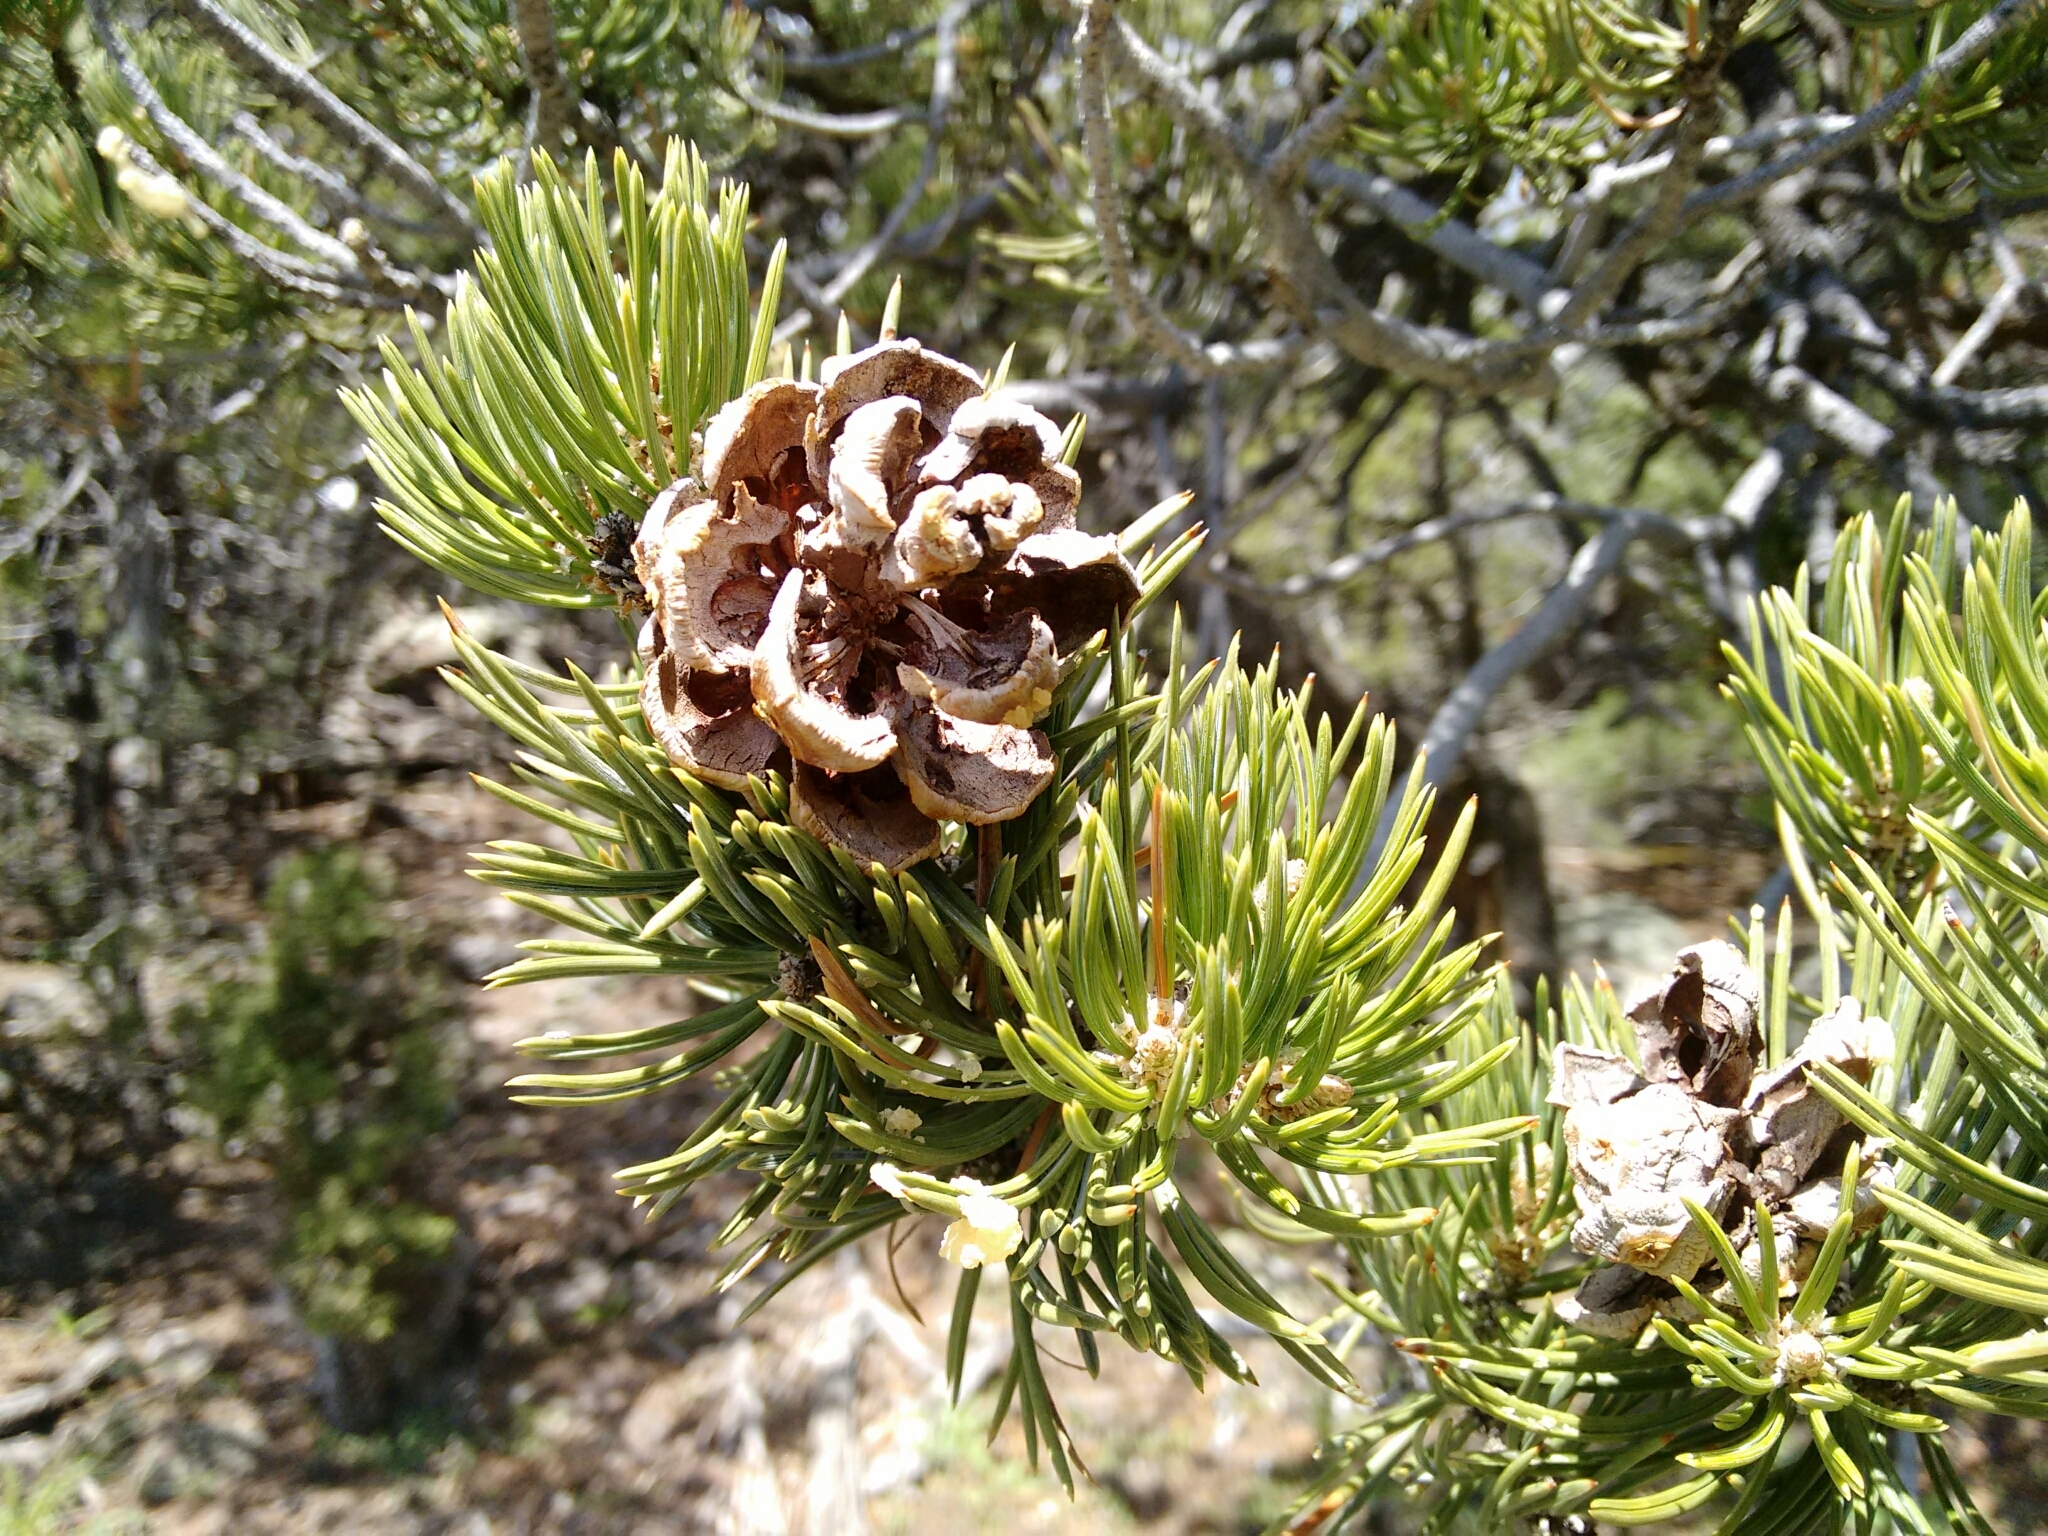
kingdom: Plantae
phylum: Tracheophyta
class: Pinopsida
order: Pinales
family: Pinaceae
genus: Pinus
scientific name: Pinus edulis
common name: Colorado pinyon
